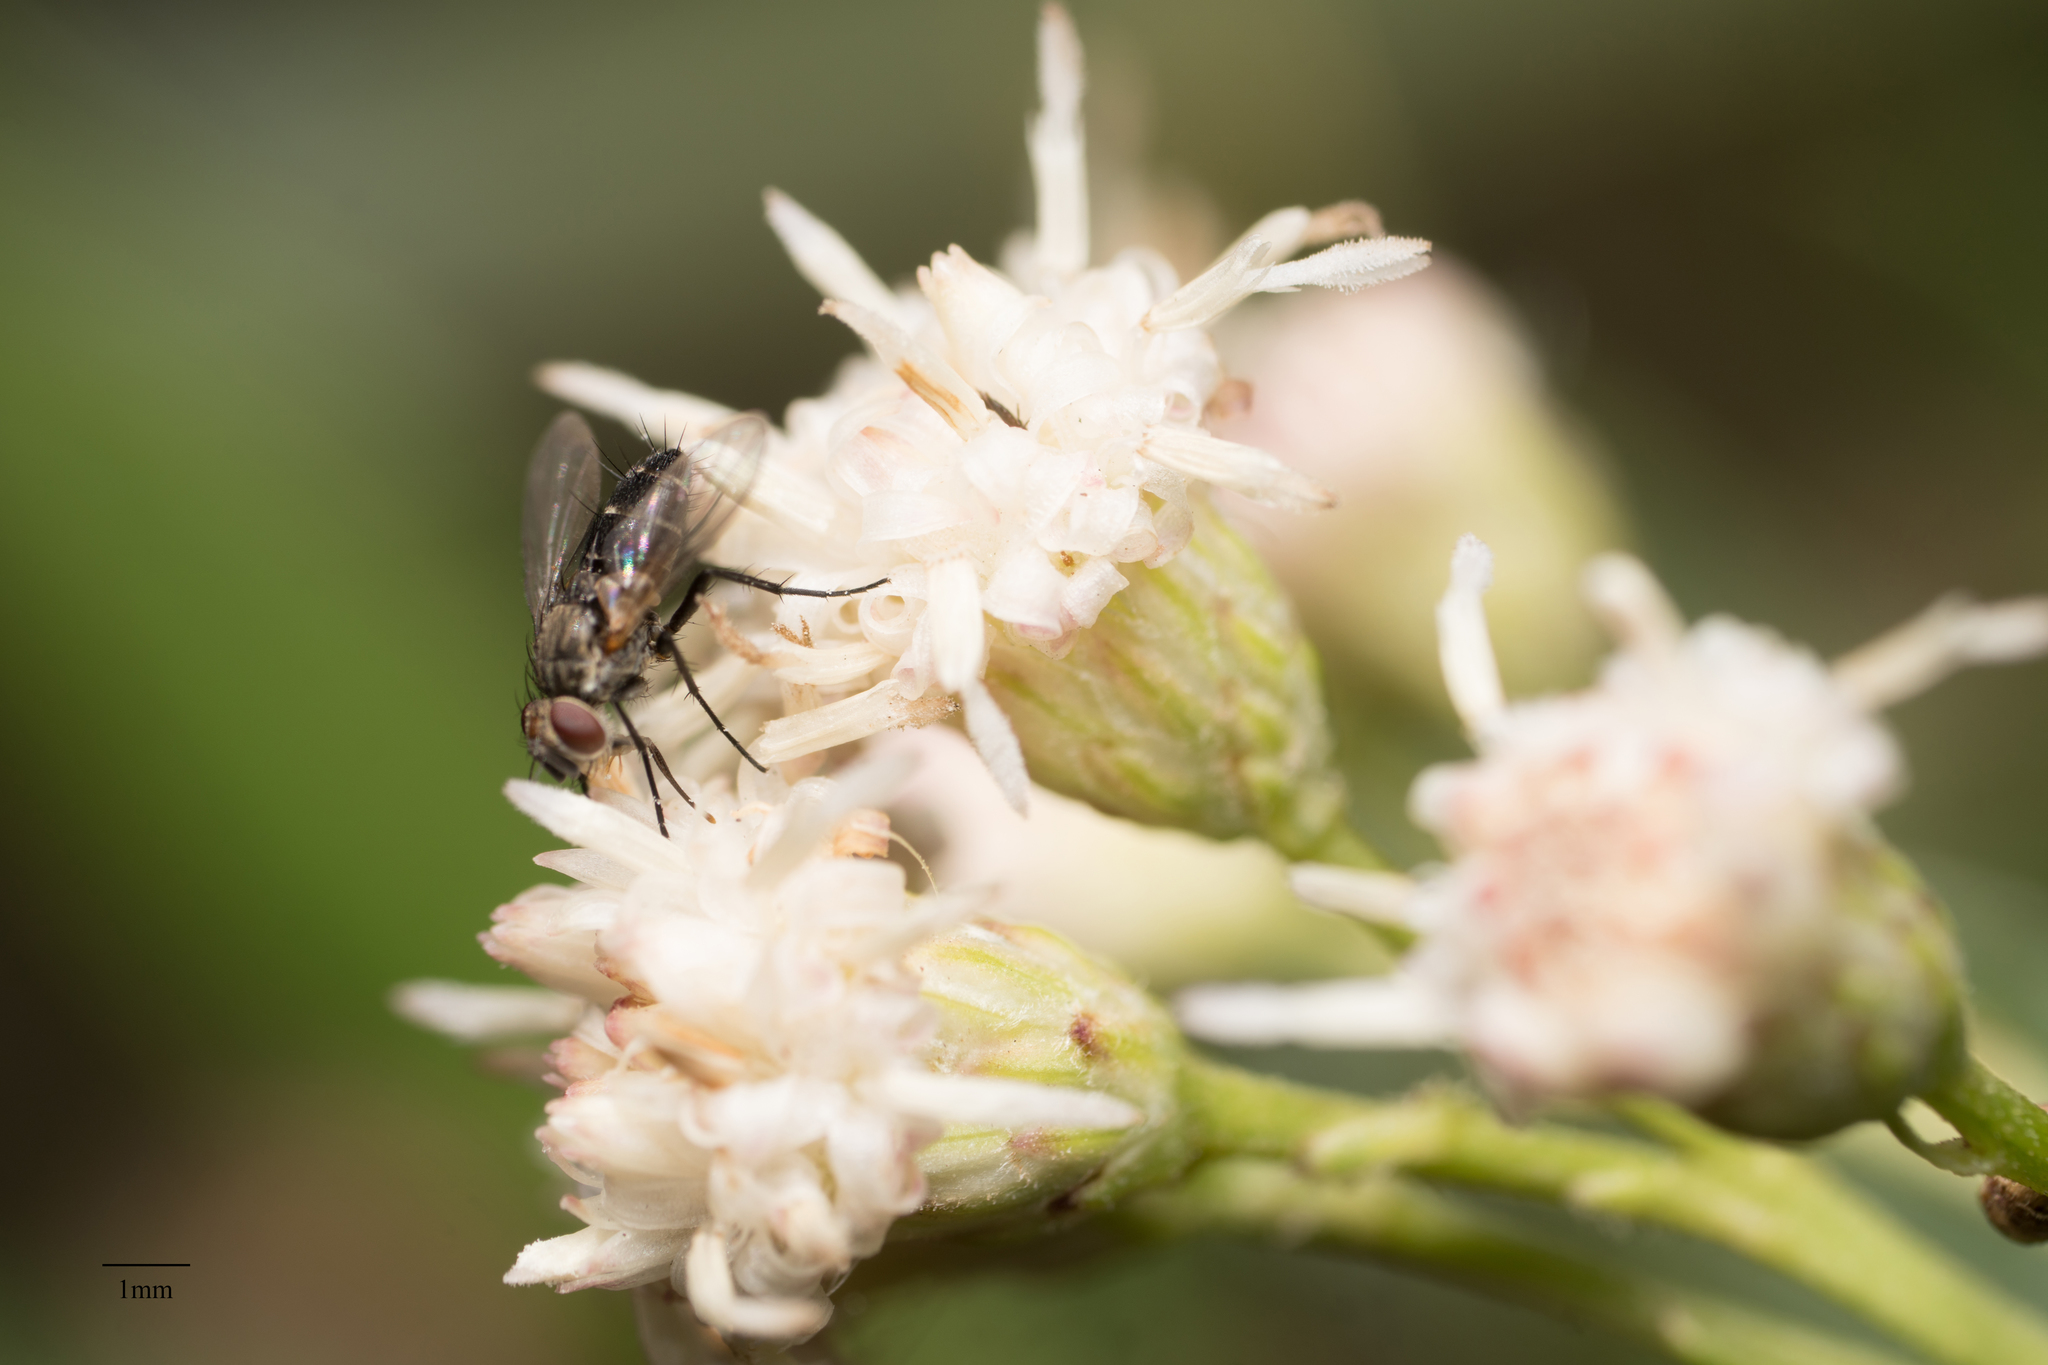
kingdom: Plantae
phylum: Tracheophyta
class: Magnoliopsida
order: Asterales
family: Asteraceae
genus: Baccharis
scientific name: Baccharis salicifolia
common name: Sticky baccharis
